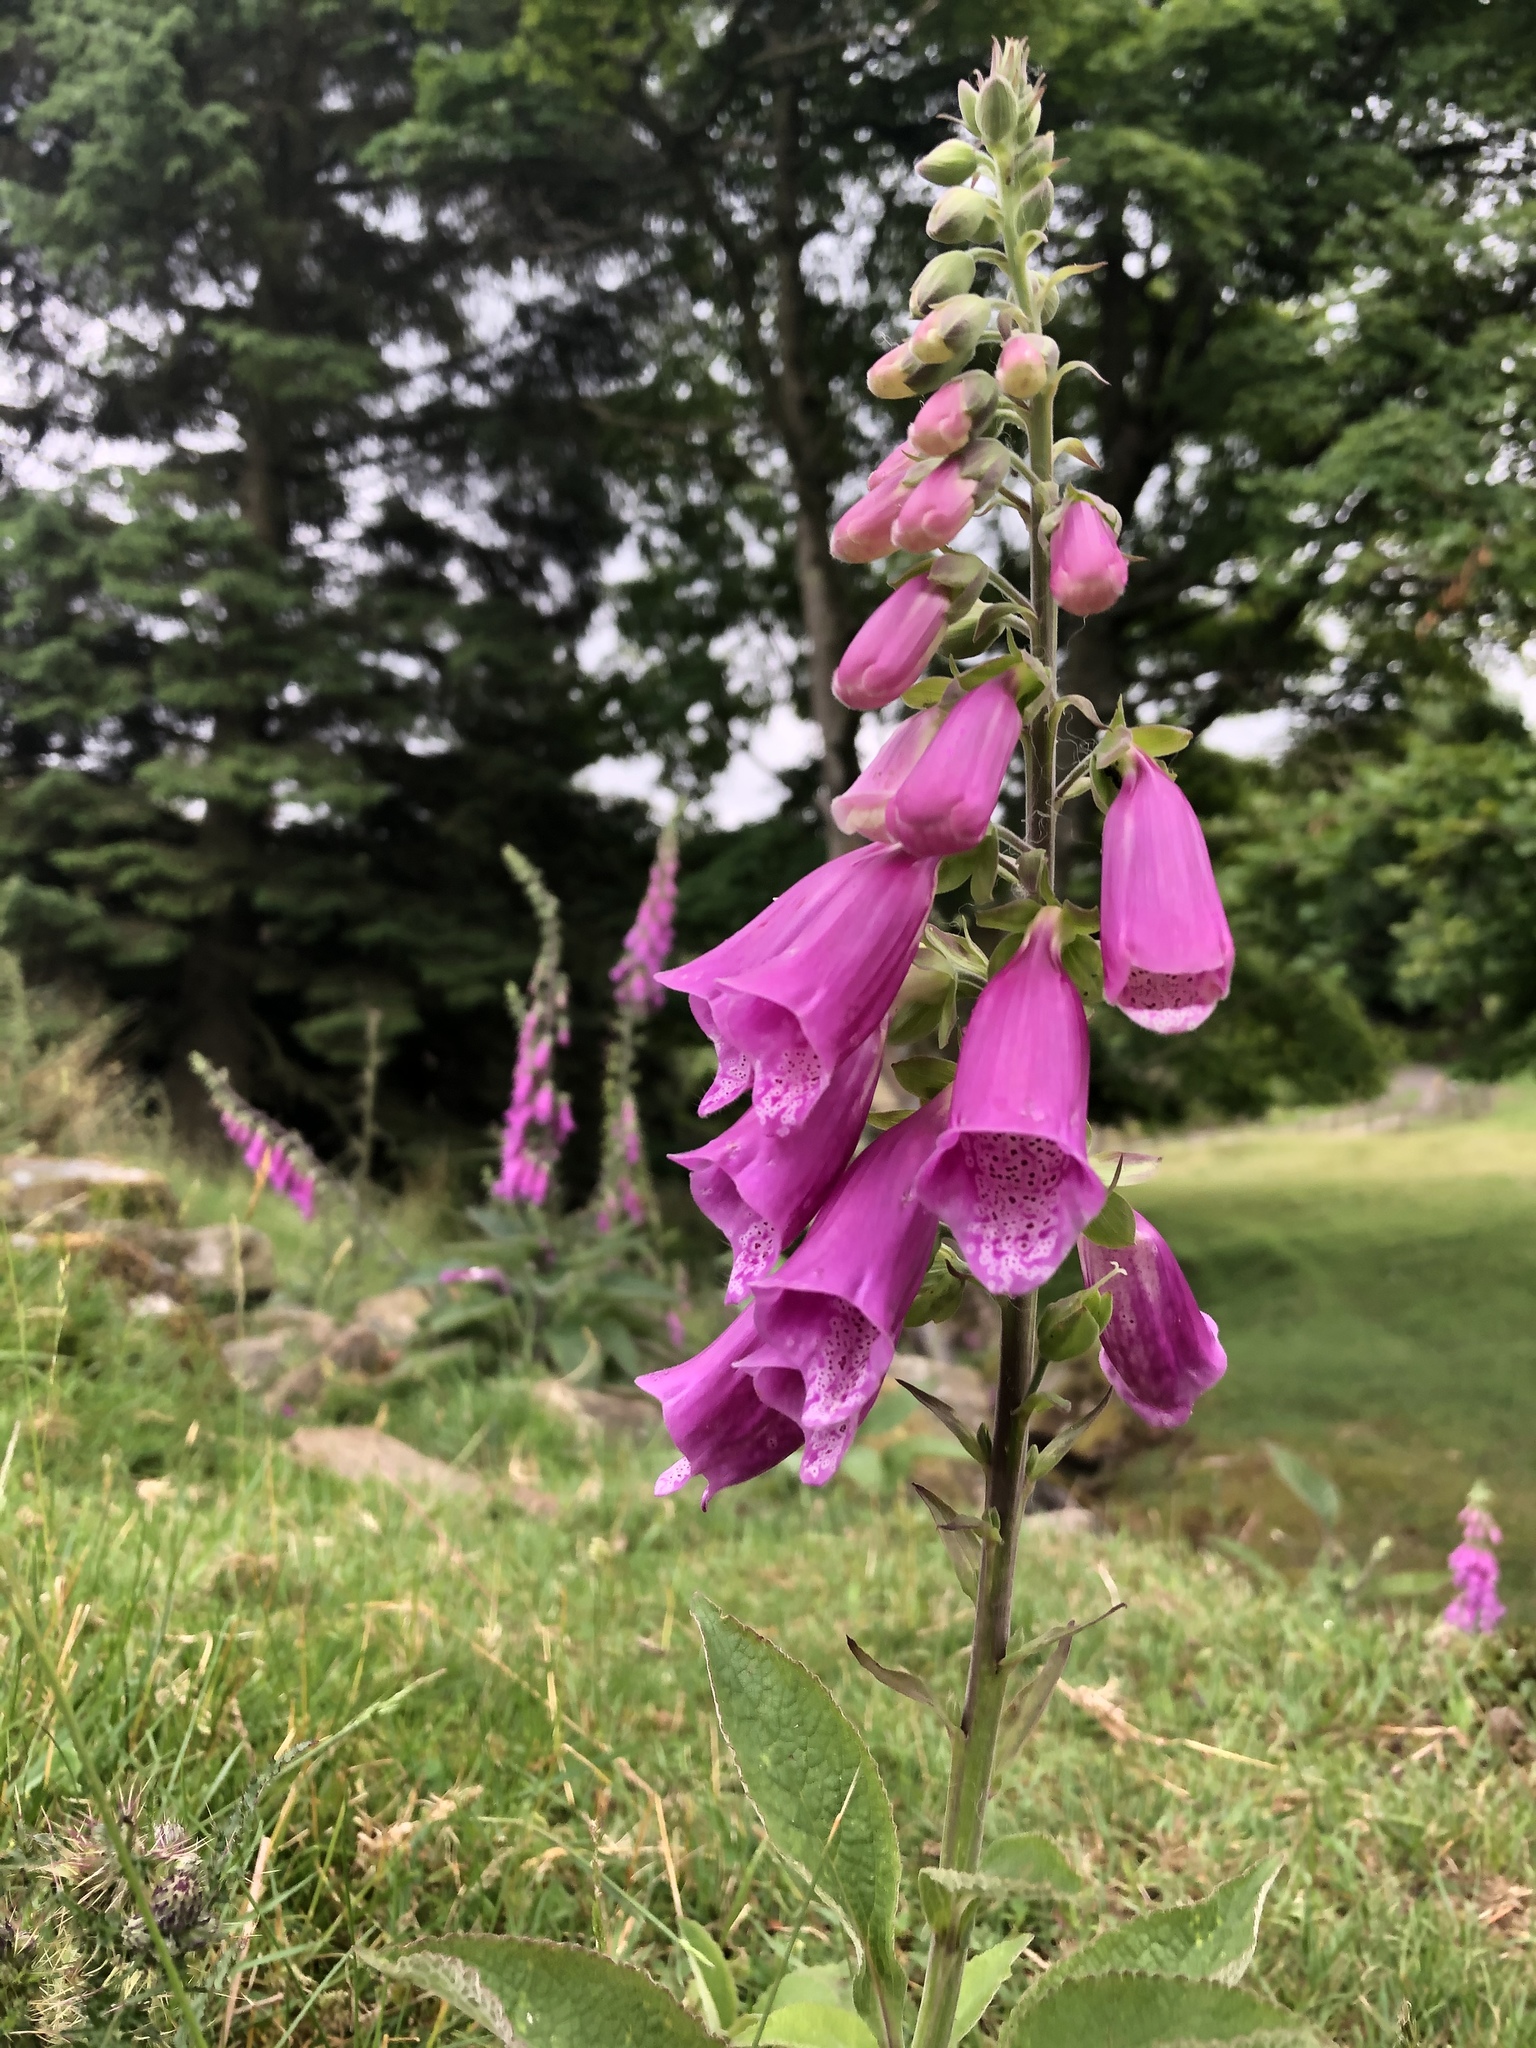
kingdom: Plantae
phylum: Tracheophyta
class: Magnoliopsida
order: Lamiales
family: Plantaginaceae
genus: Digitalis
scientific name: Digitalis purpurea
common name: Foxglove
